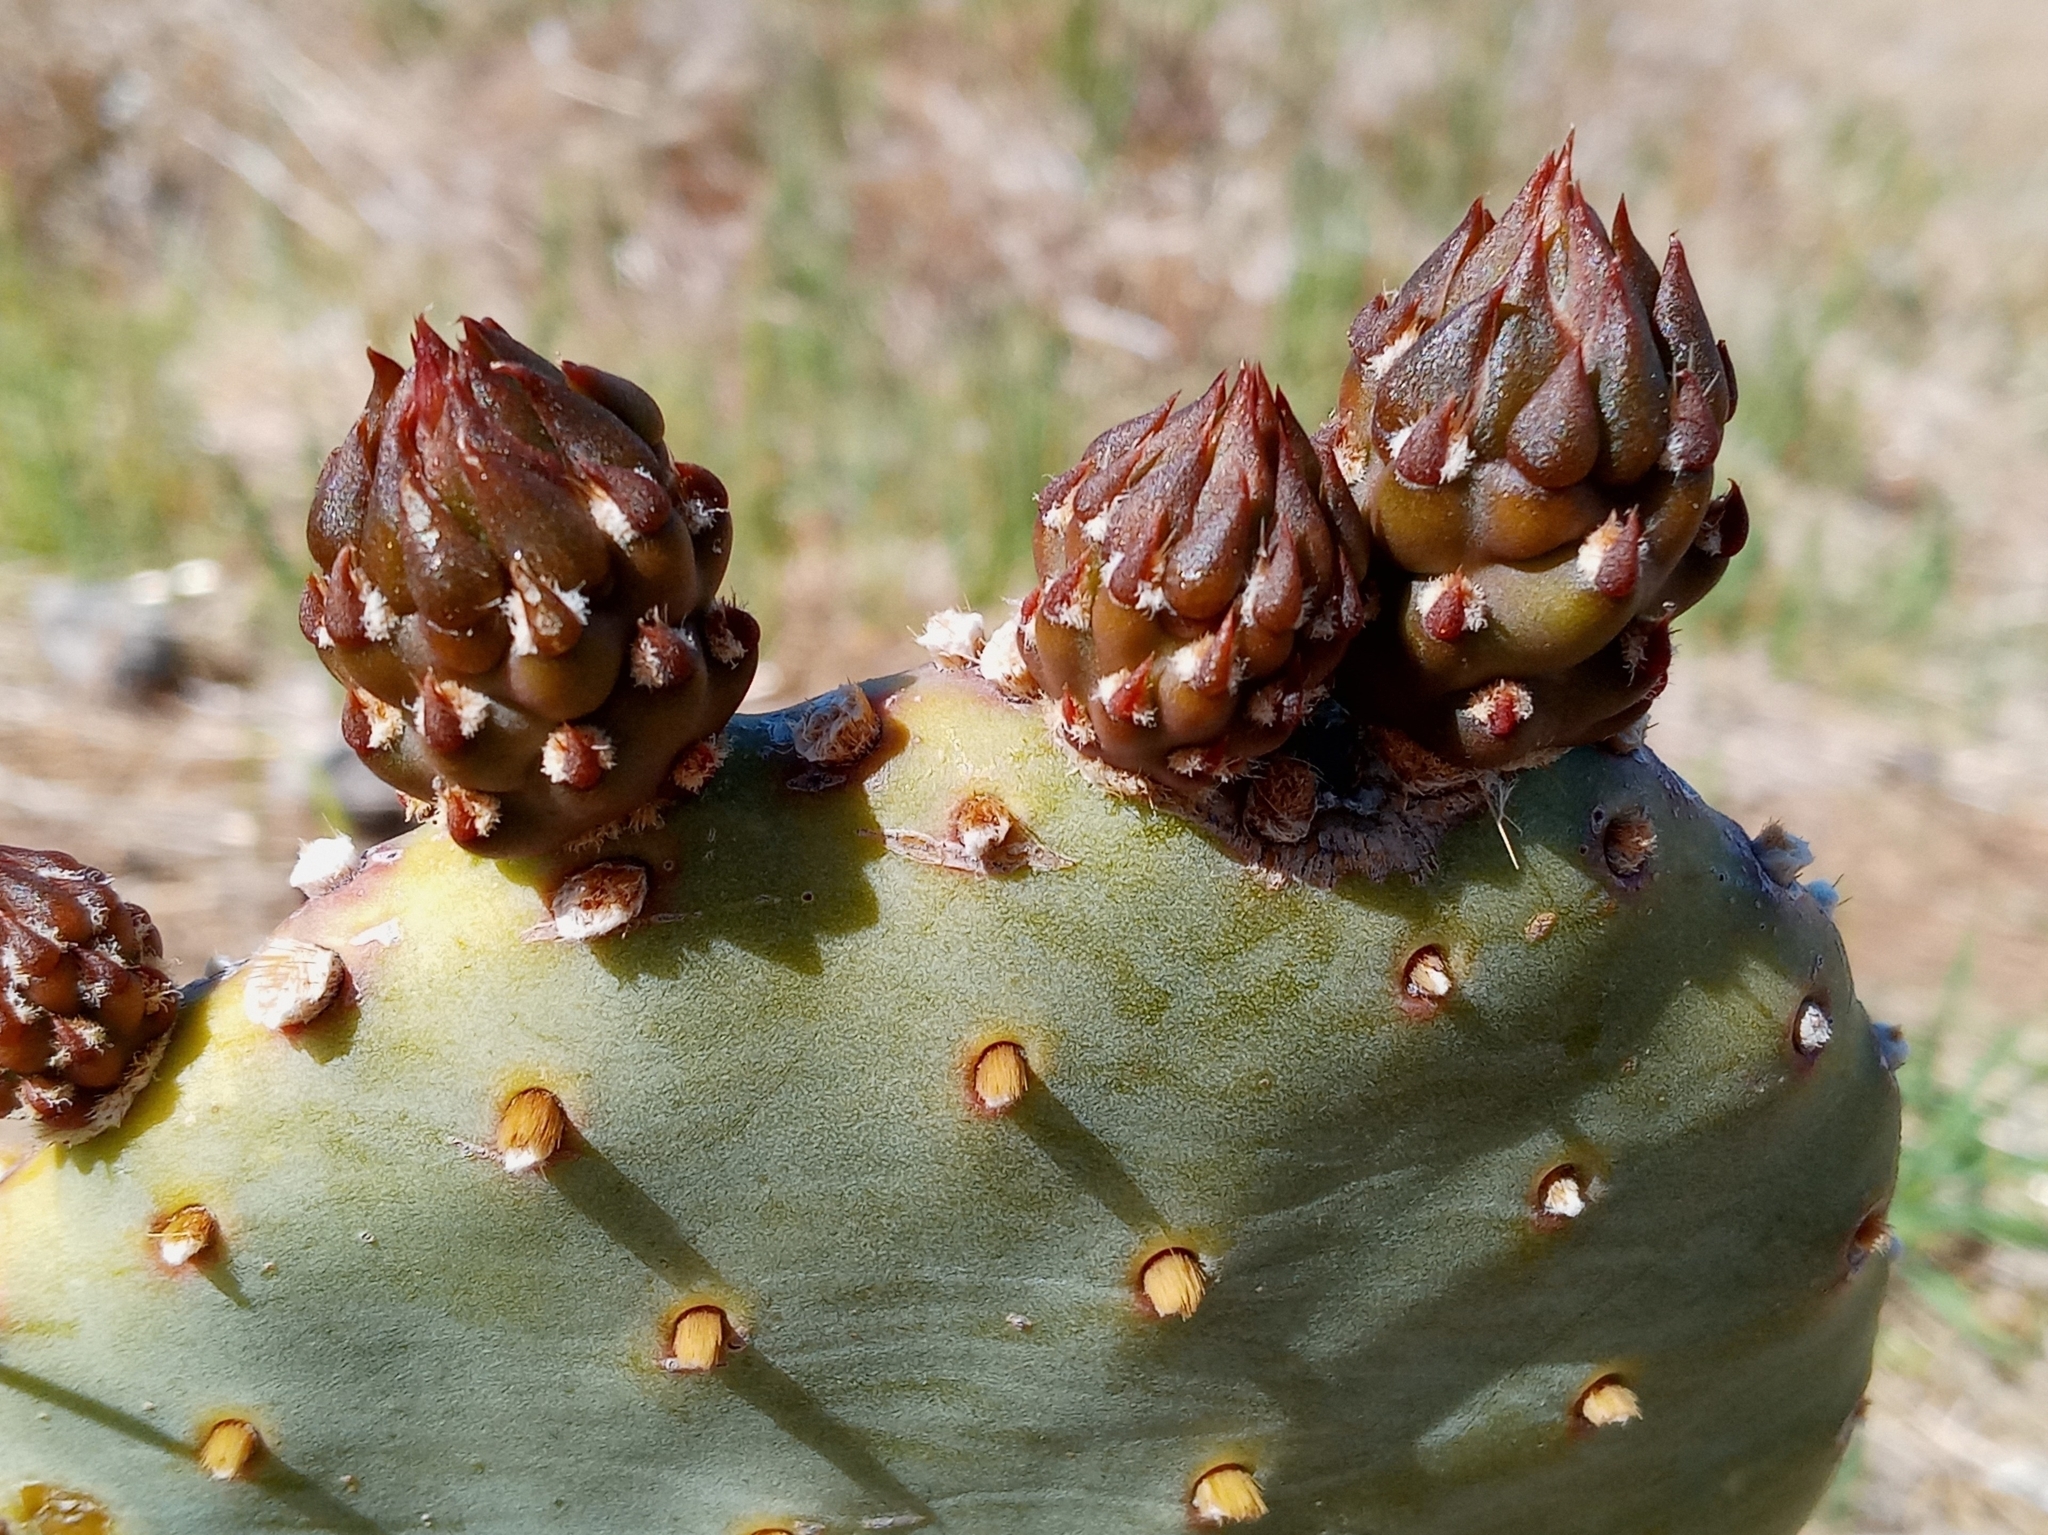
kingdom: Plantae
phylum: Tracheophyta
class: Magnoliopsida
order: Caryophyllales
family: Cactaceae
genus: Opuntia
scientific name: Opuntia basilaris
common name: Beavertail prickly-pear
